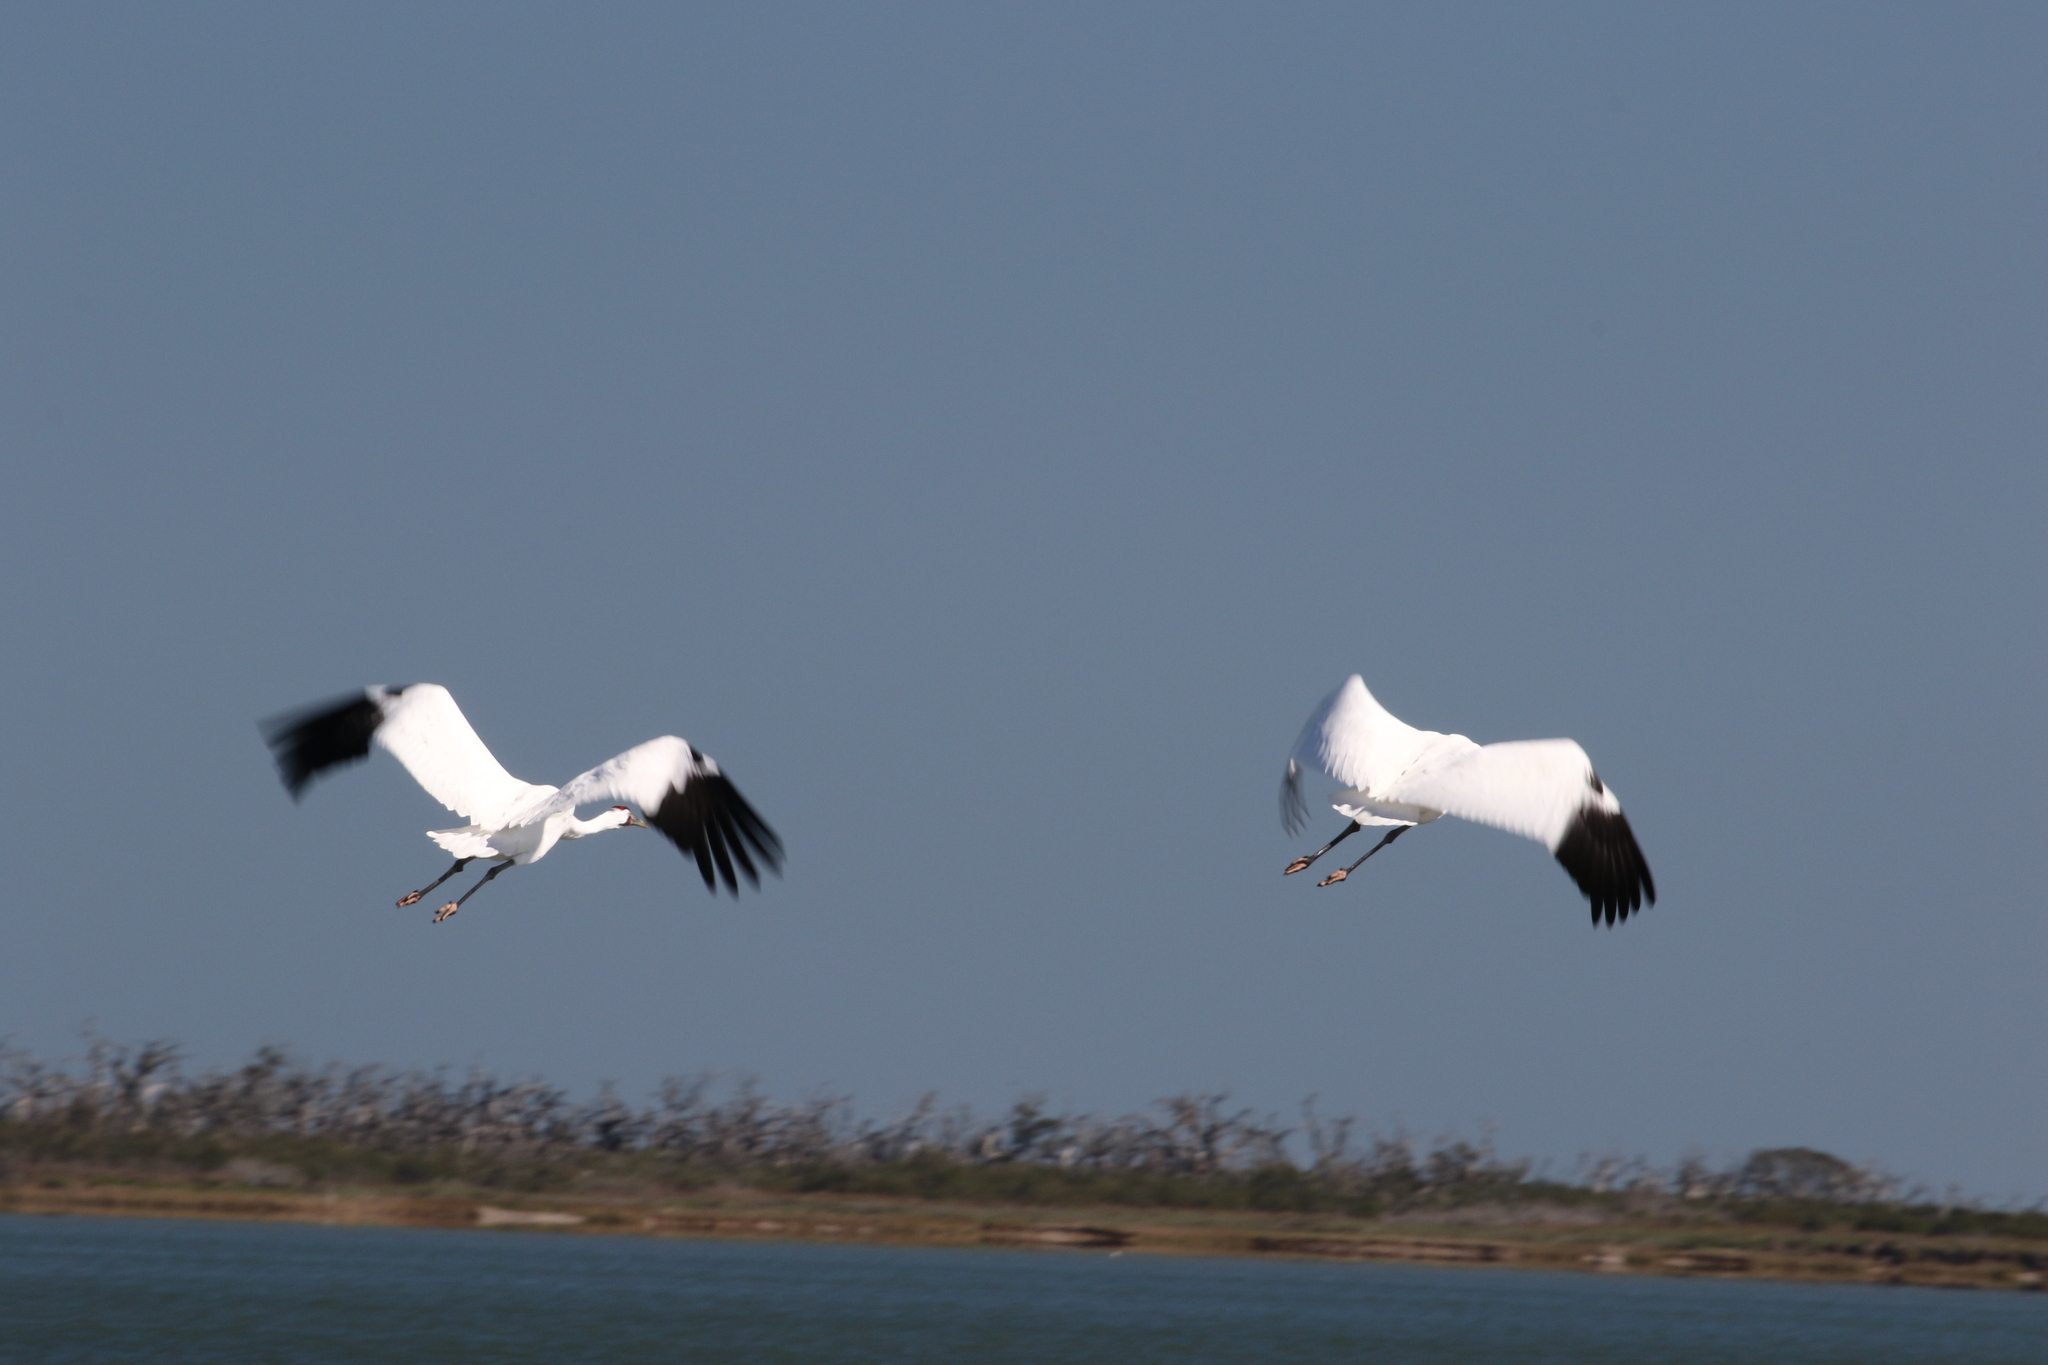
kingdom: Animalia
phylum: Chordata
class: Aves
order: Gruiformes
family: Gruidae
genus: Grus
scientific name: Grus americana
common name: Whooping crane
